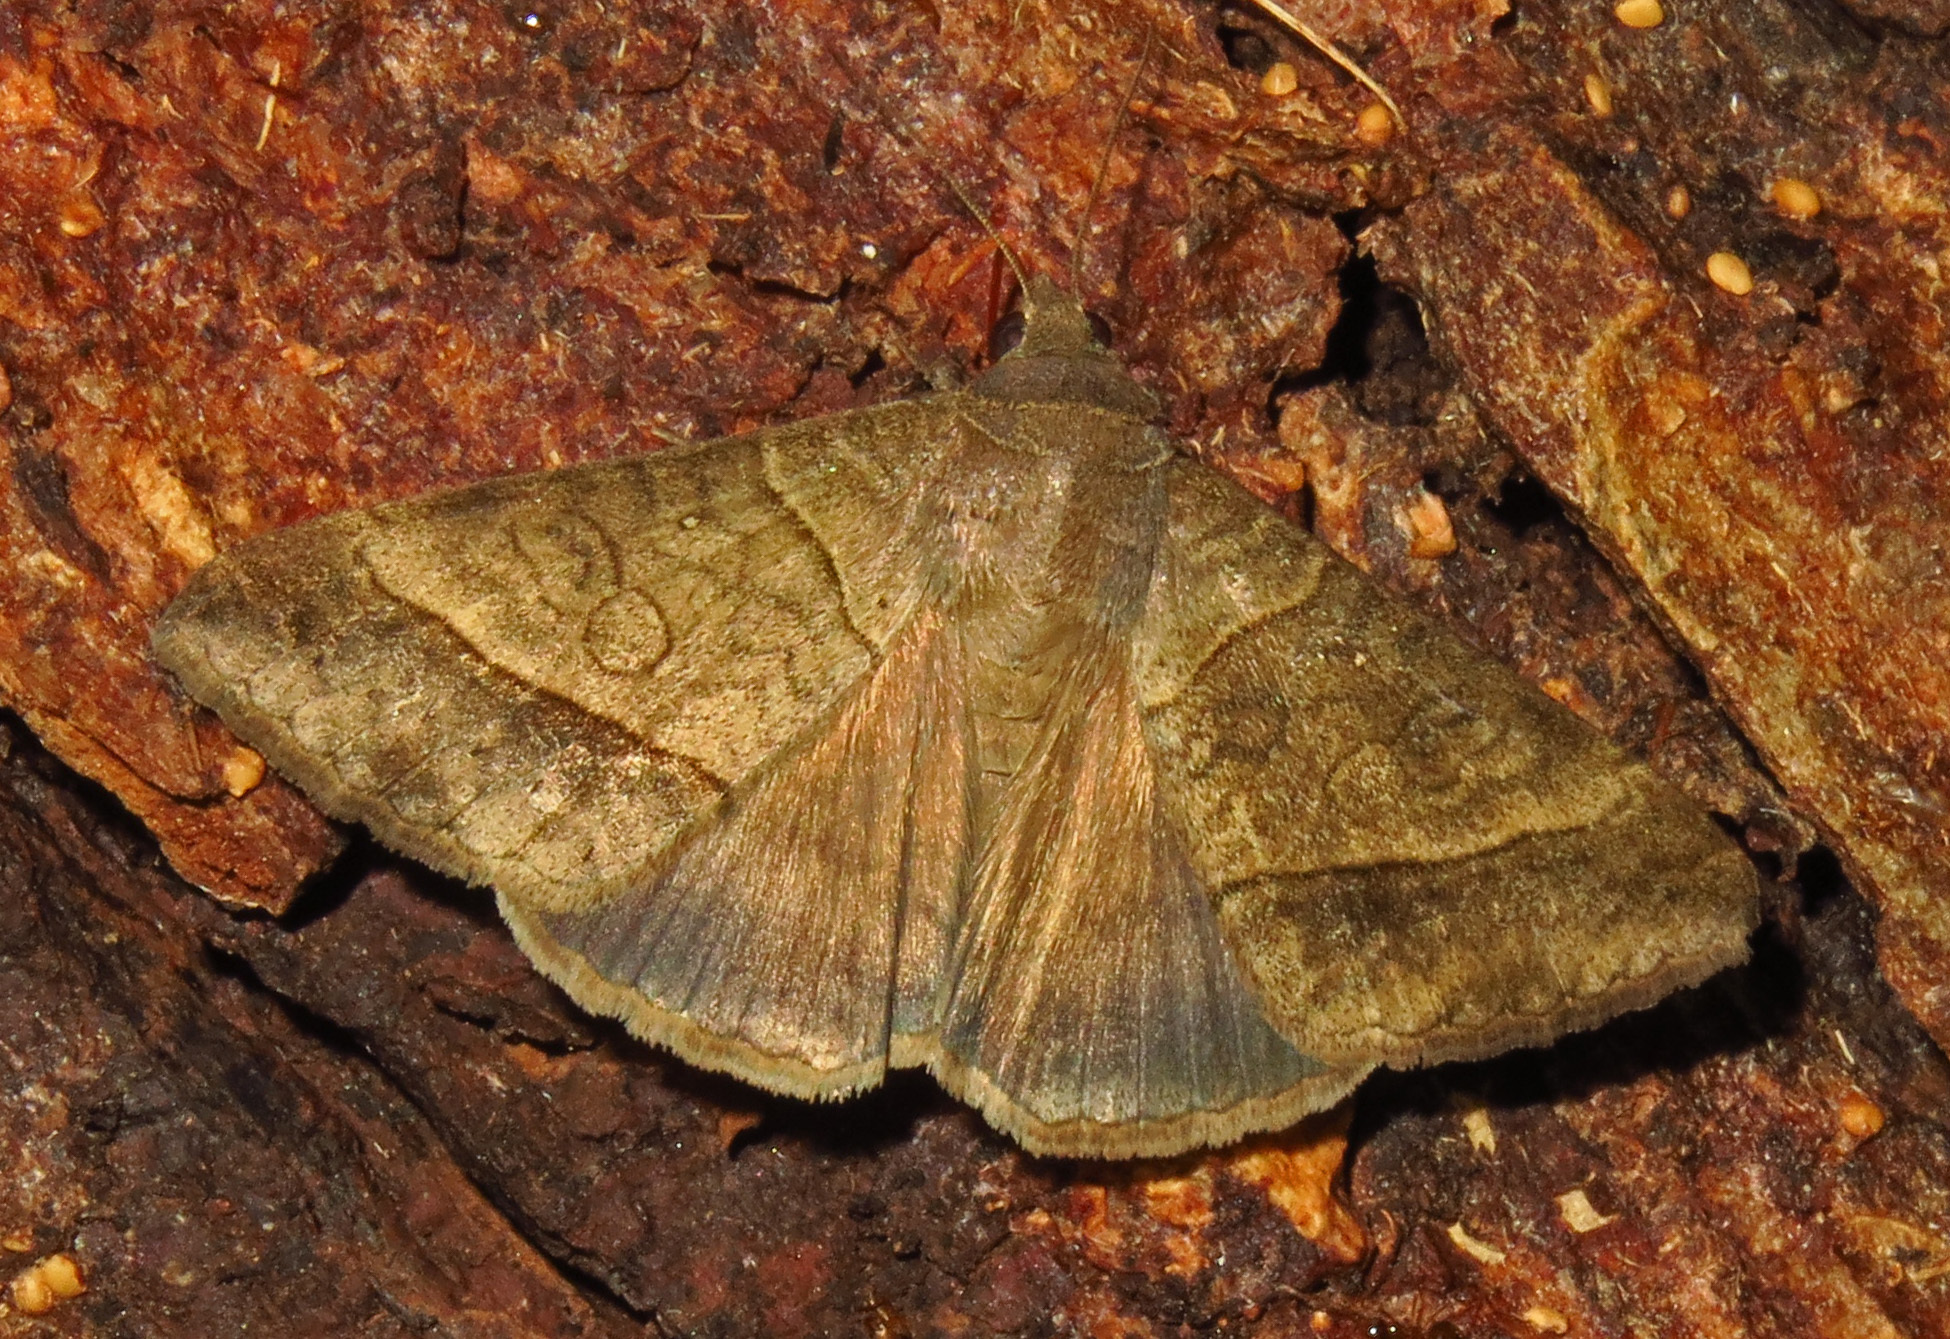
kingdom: Animalia
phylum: Arthropoda
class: Insecta
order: Lepidoptera
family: Erebidae
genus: Mocis
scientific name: Mocis latipes
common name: Striped grass looper
